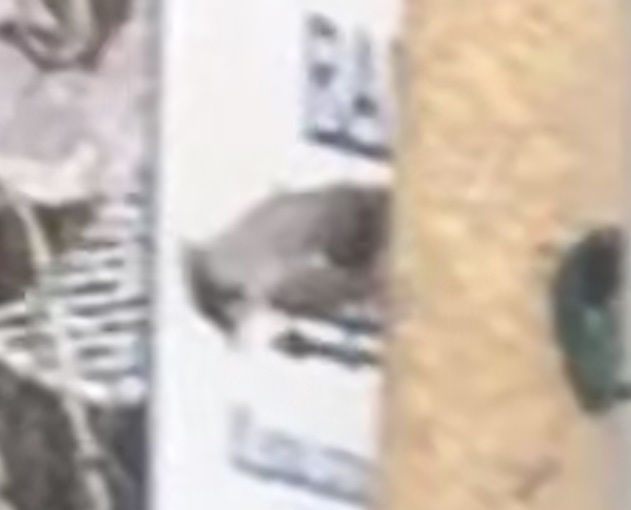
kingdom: Animalia
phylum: Chordata
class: Aves
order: Passeriformes
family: Paridae
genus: Baeolophus
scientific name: Baeolophus bicolor
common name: Tufted titmouse
